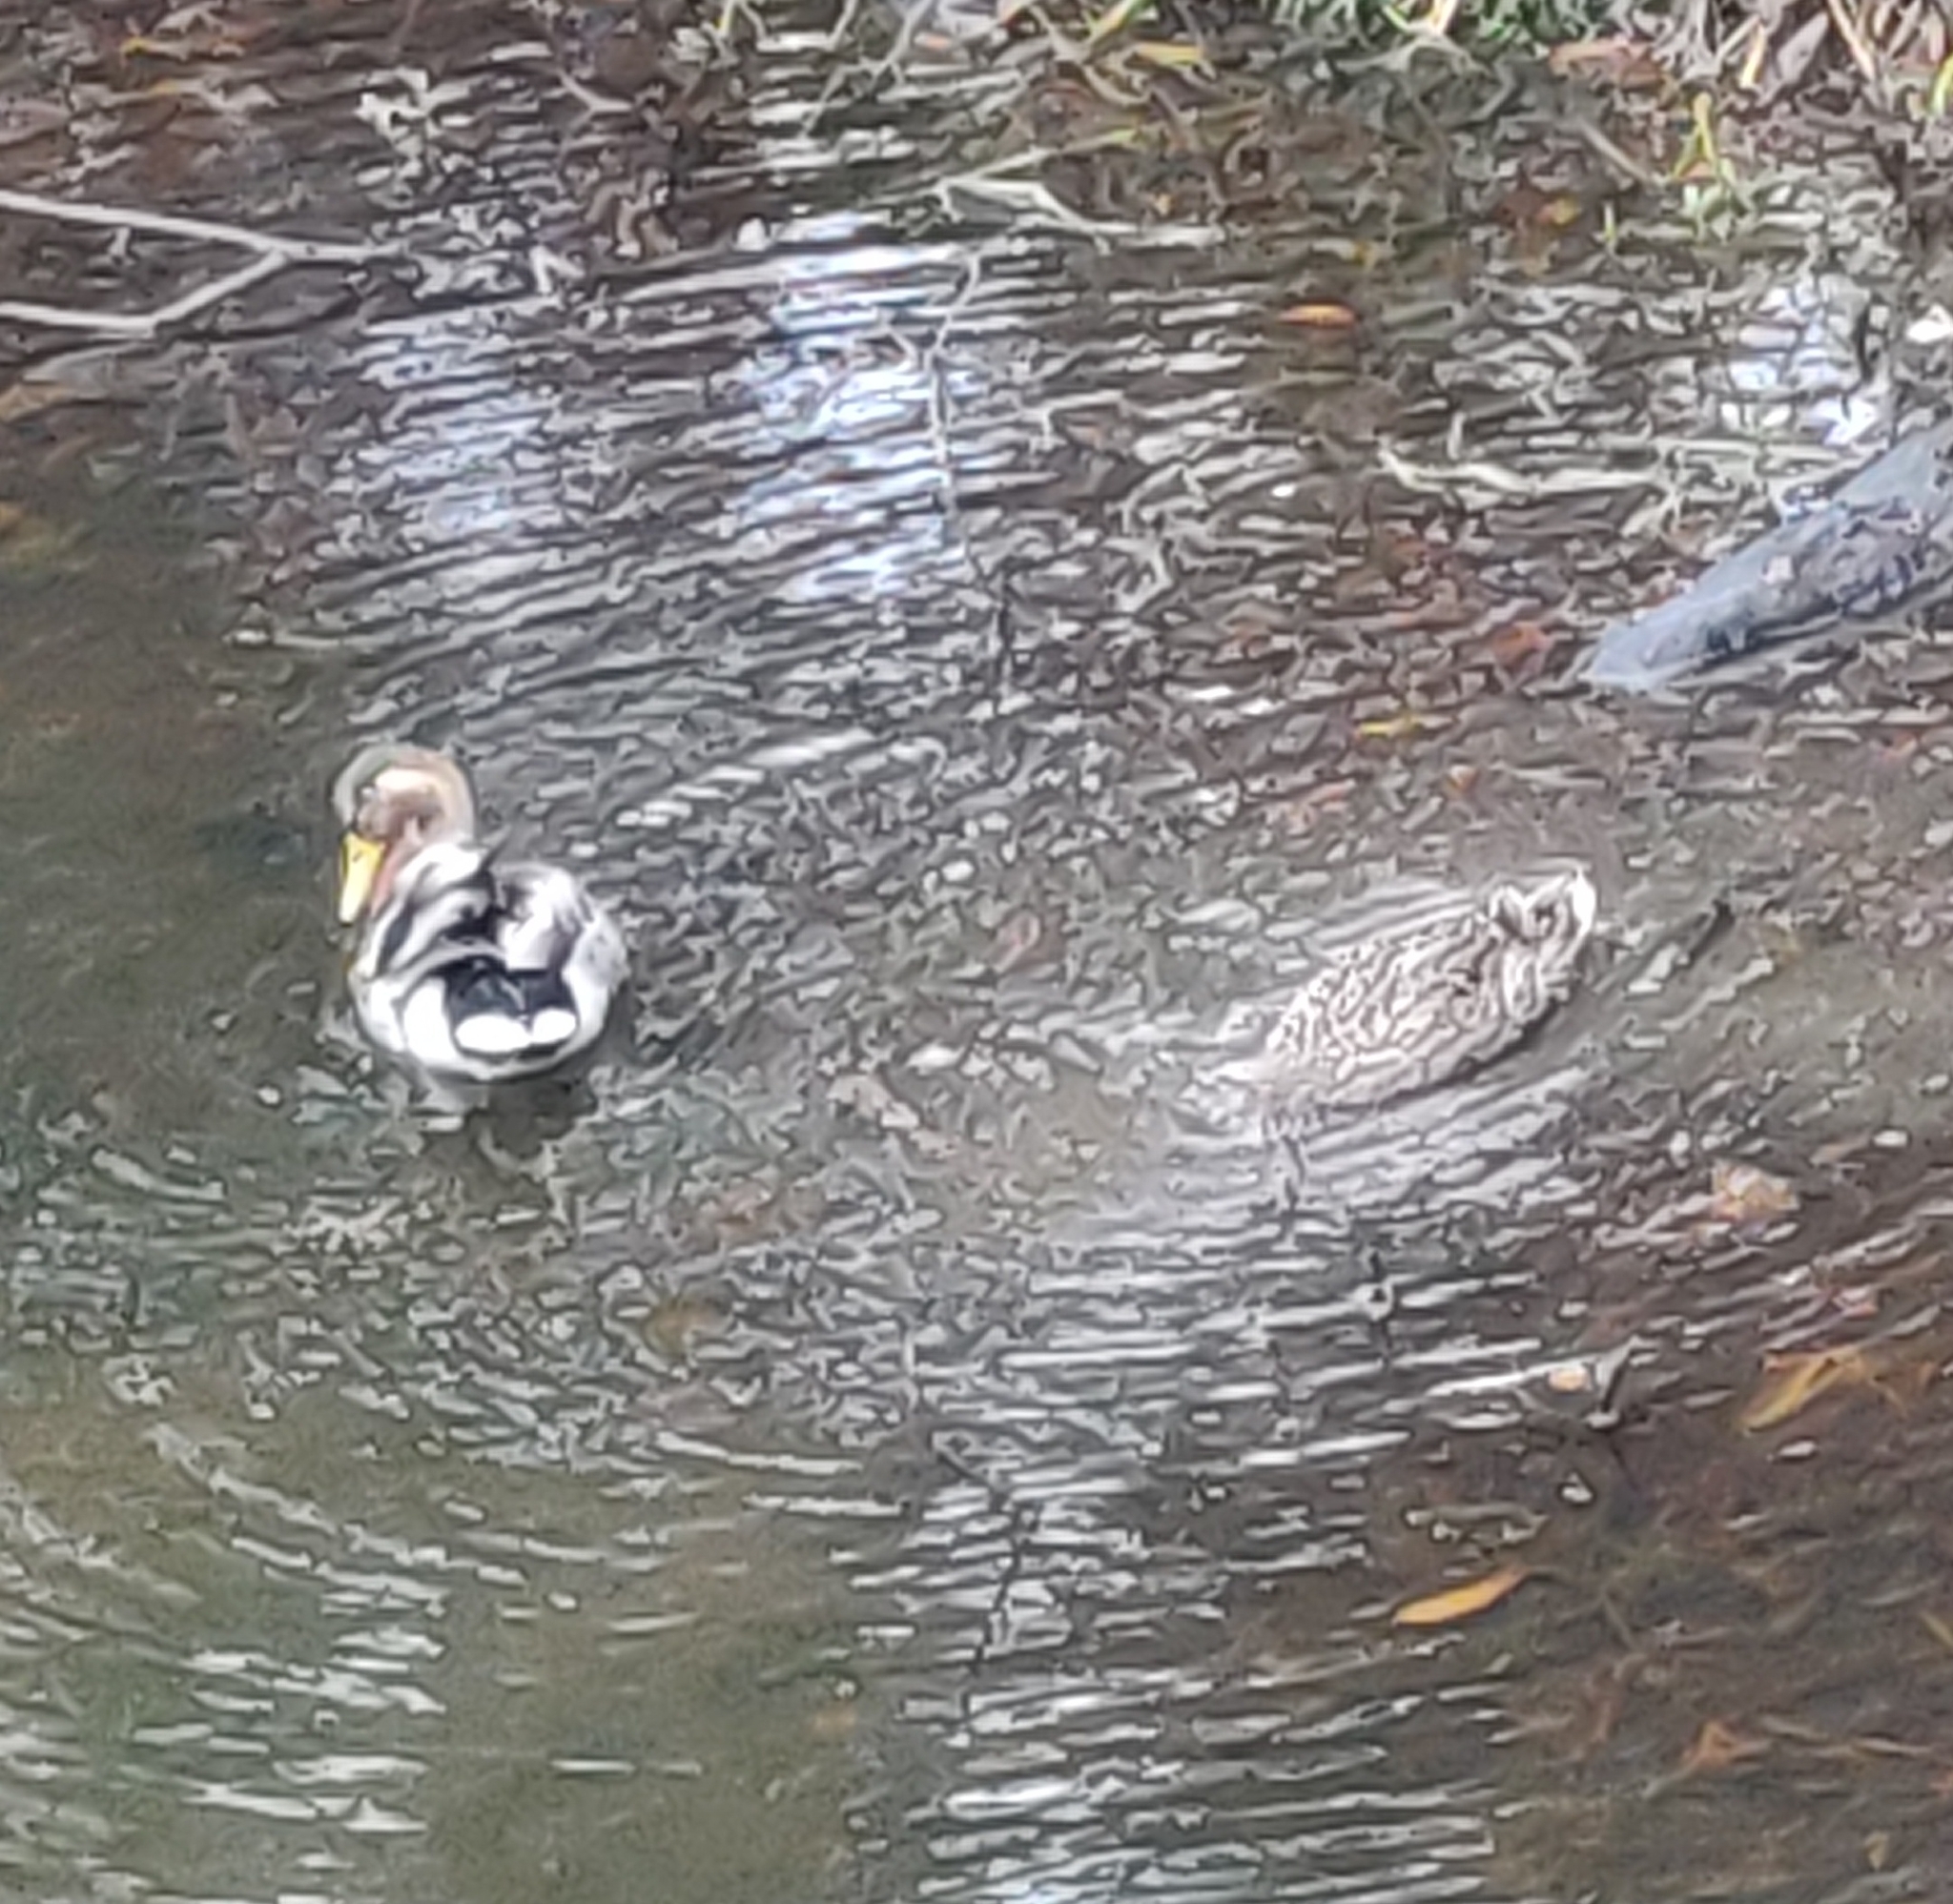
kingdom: Animalia
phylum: Chordata
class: Aves
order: Anseriformes
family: Anatidae
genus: Anas
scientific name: Anas platyrhynchos
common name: Mallard
